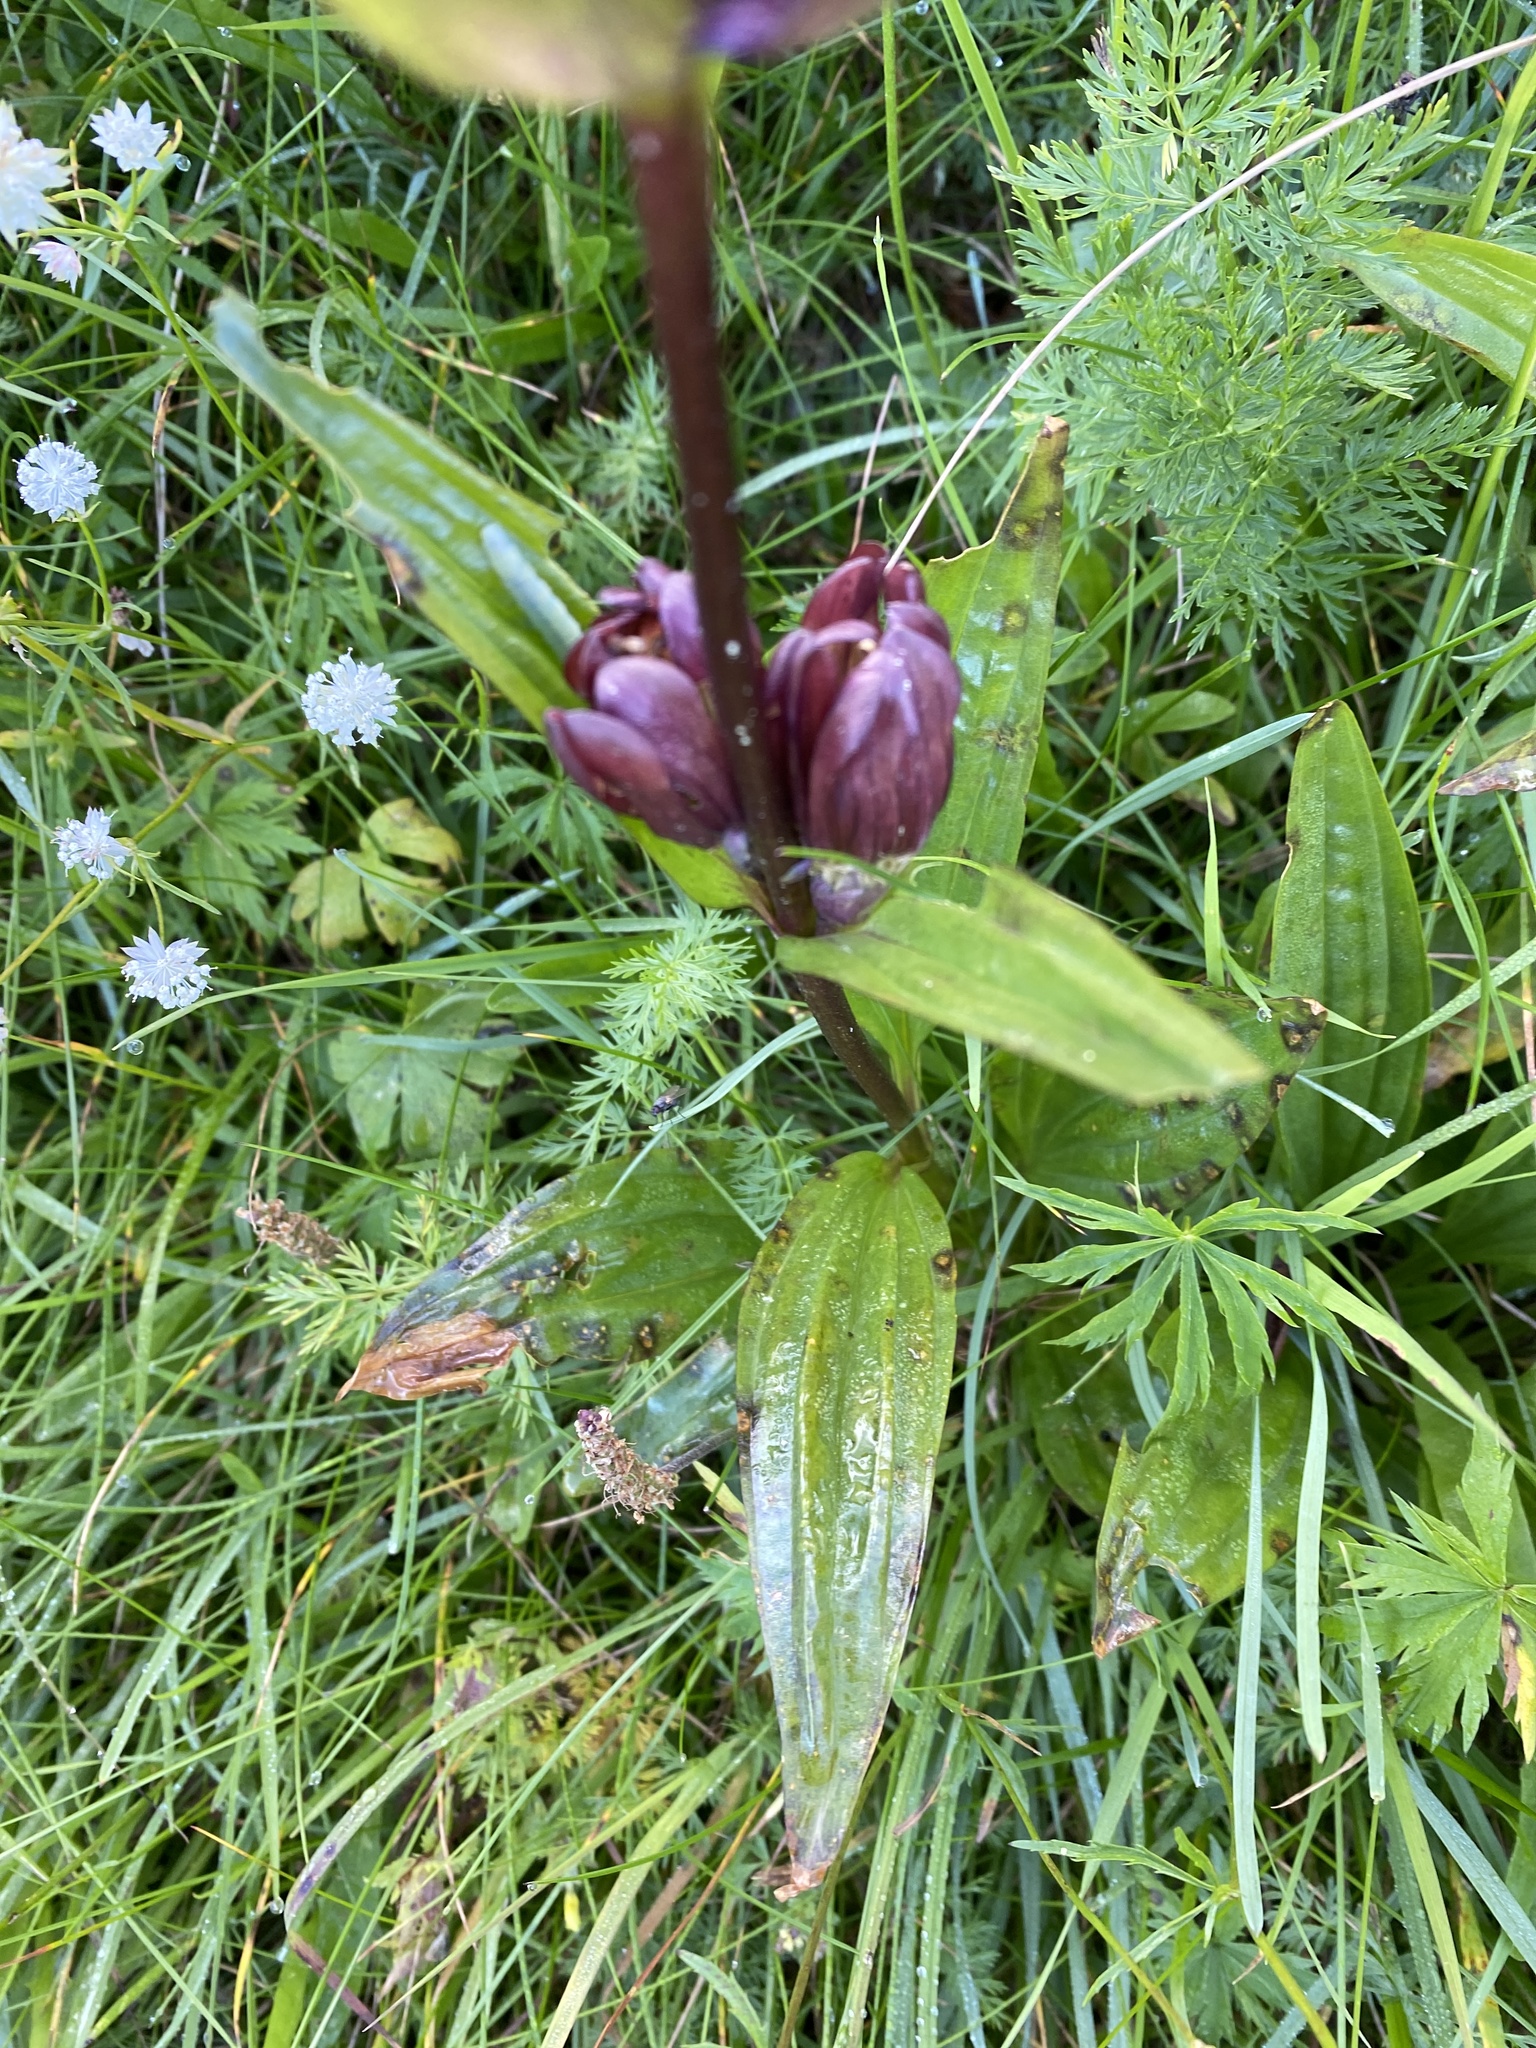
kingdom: Plantae
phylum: Tracheophyta
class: Magnoliopsida
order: Gentianales
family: Gentianaceae
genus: Gentiana
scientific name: Gentiana purpurea
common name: Purple gentian
